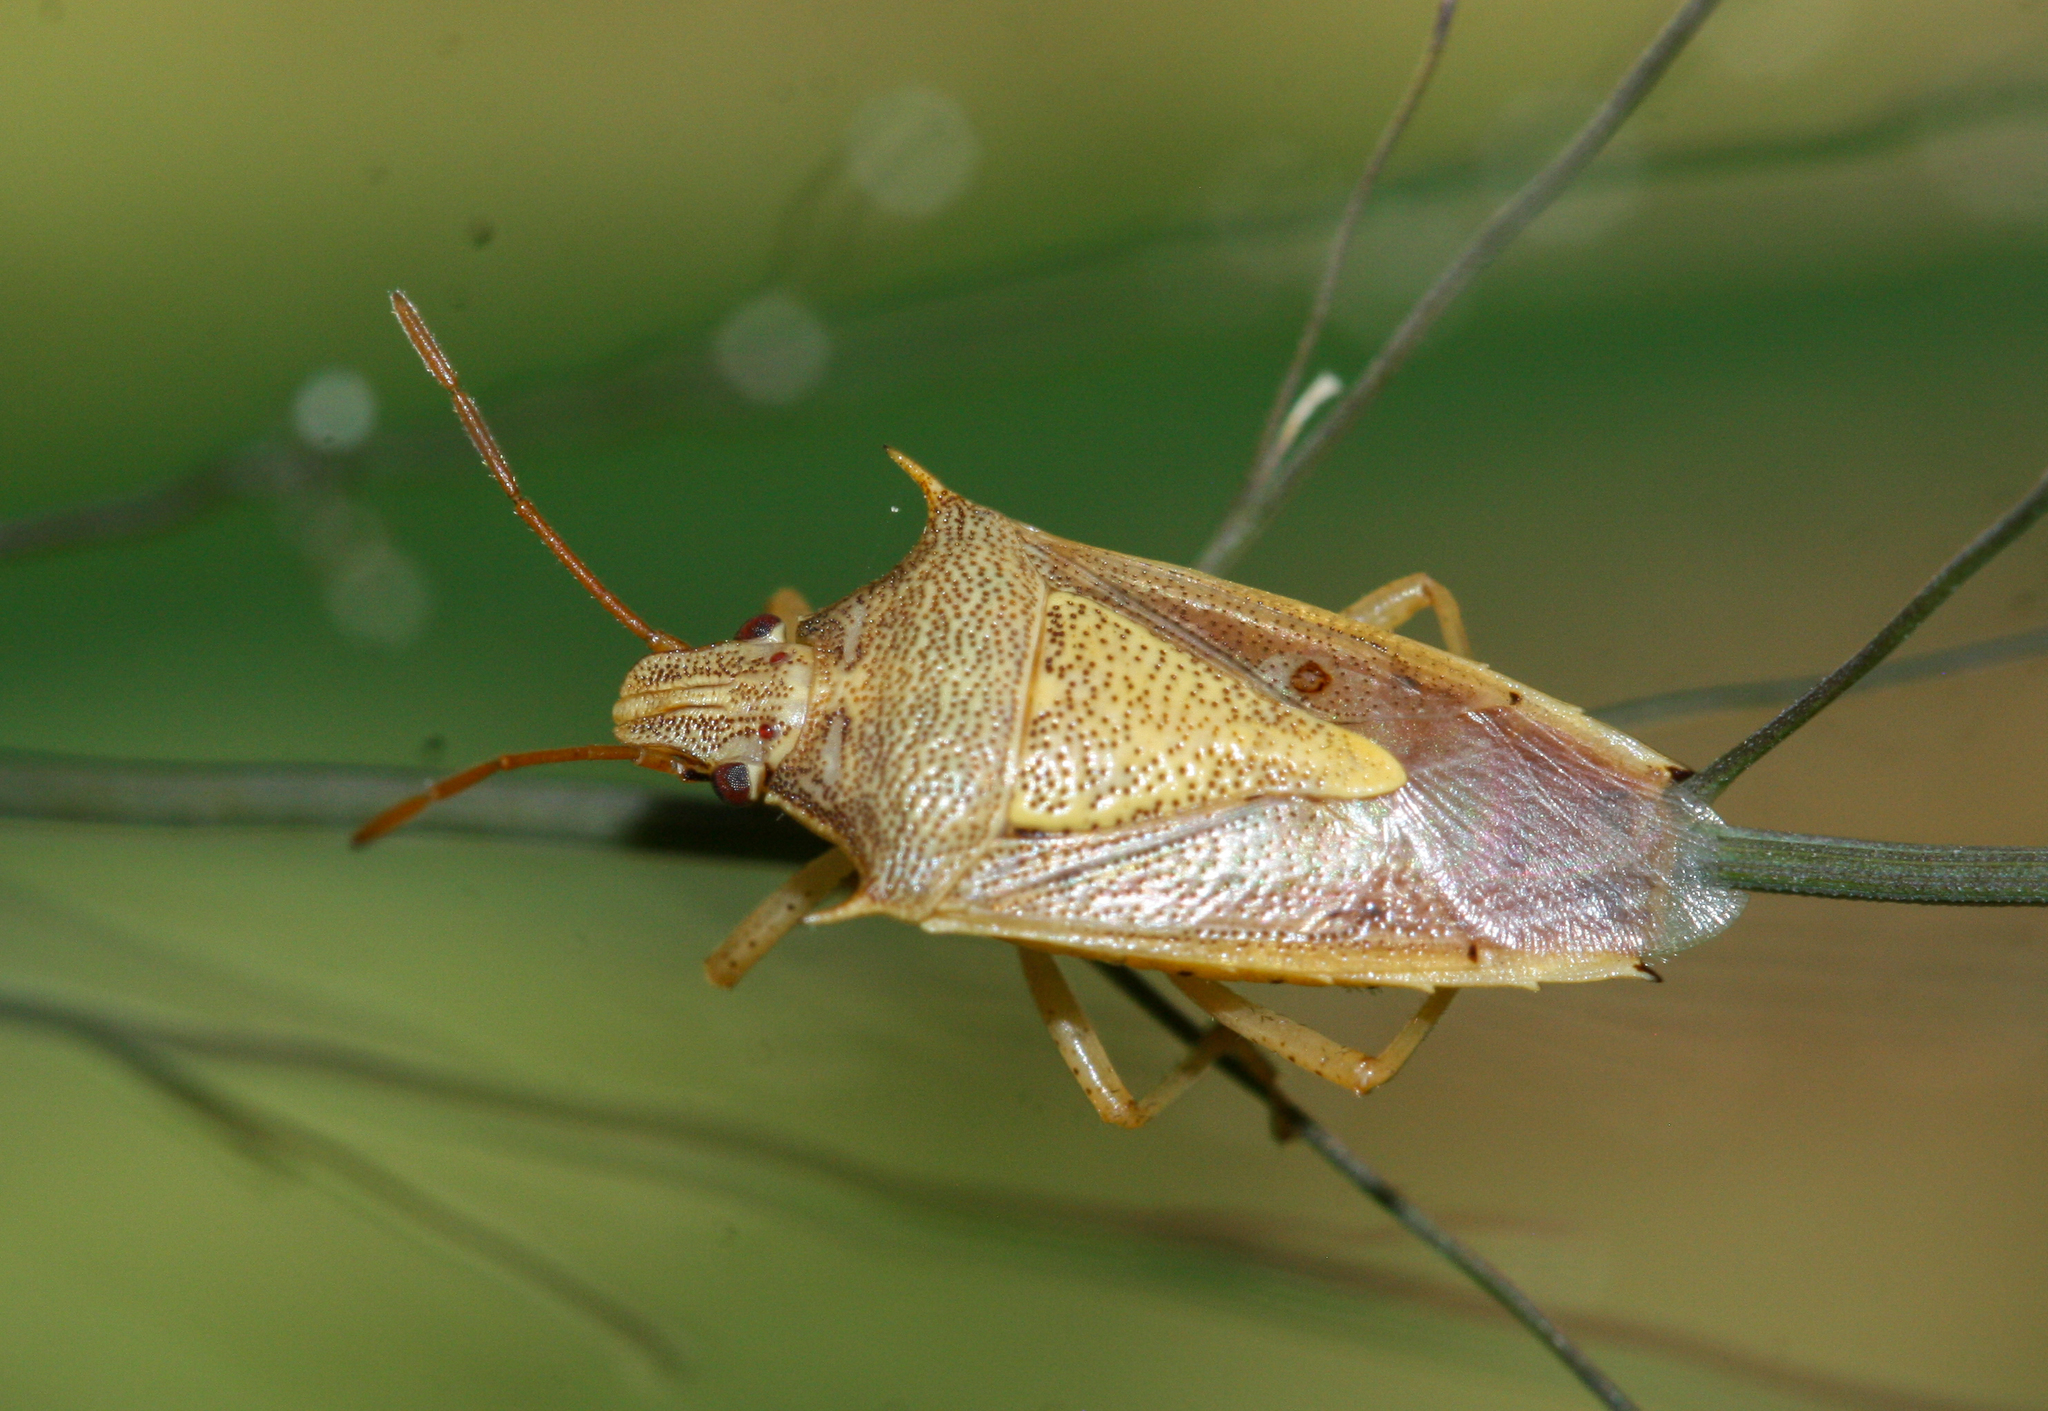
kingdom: Animalia
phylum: Arthropoda
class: Insecta
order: Hemiptera
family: Pentatomidae
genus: Oebalus
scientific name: Oebalus pugnax
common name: Rice stink bug
